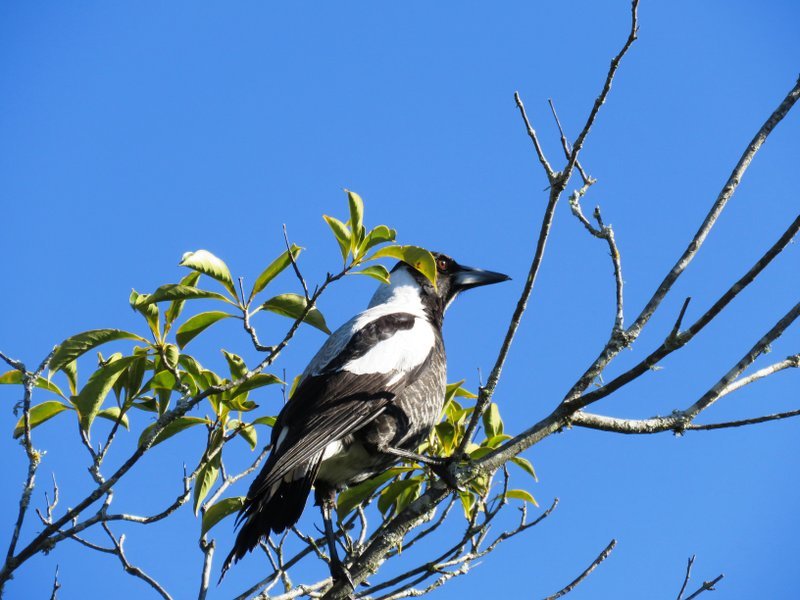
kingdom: Animalia
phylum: Chordata
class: Aves
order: Passeriformes
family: Cracticidae
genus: Gymnorhina
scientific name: Gymnorhina tibicen
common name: Australian magpie
